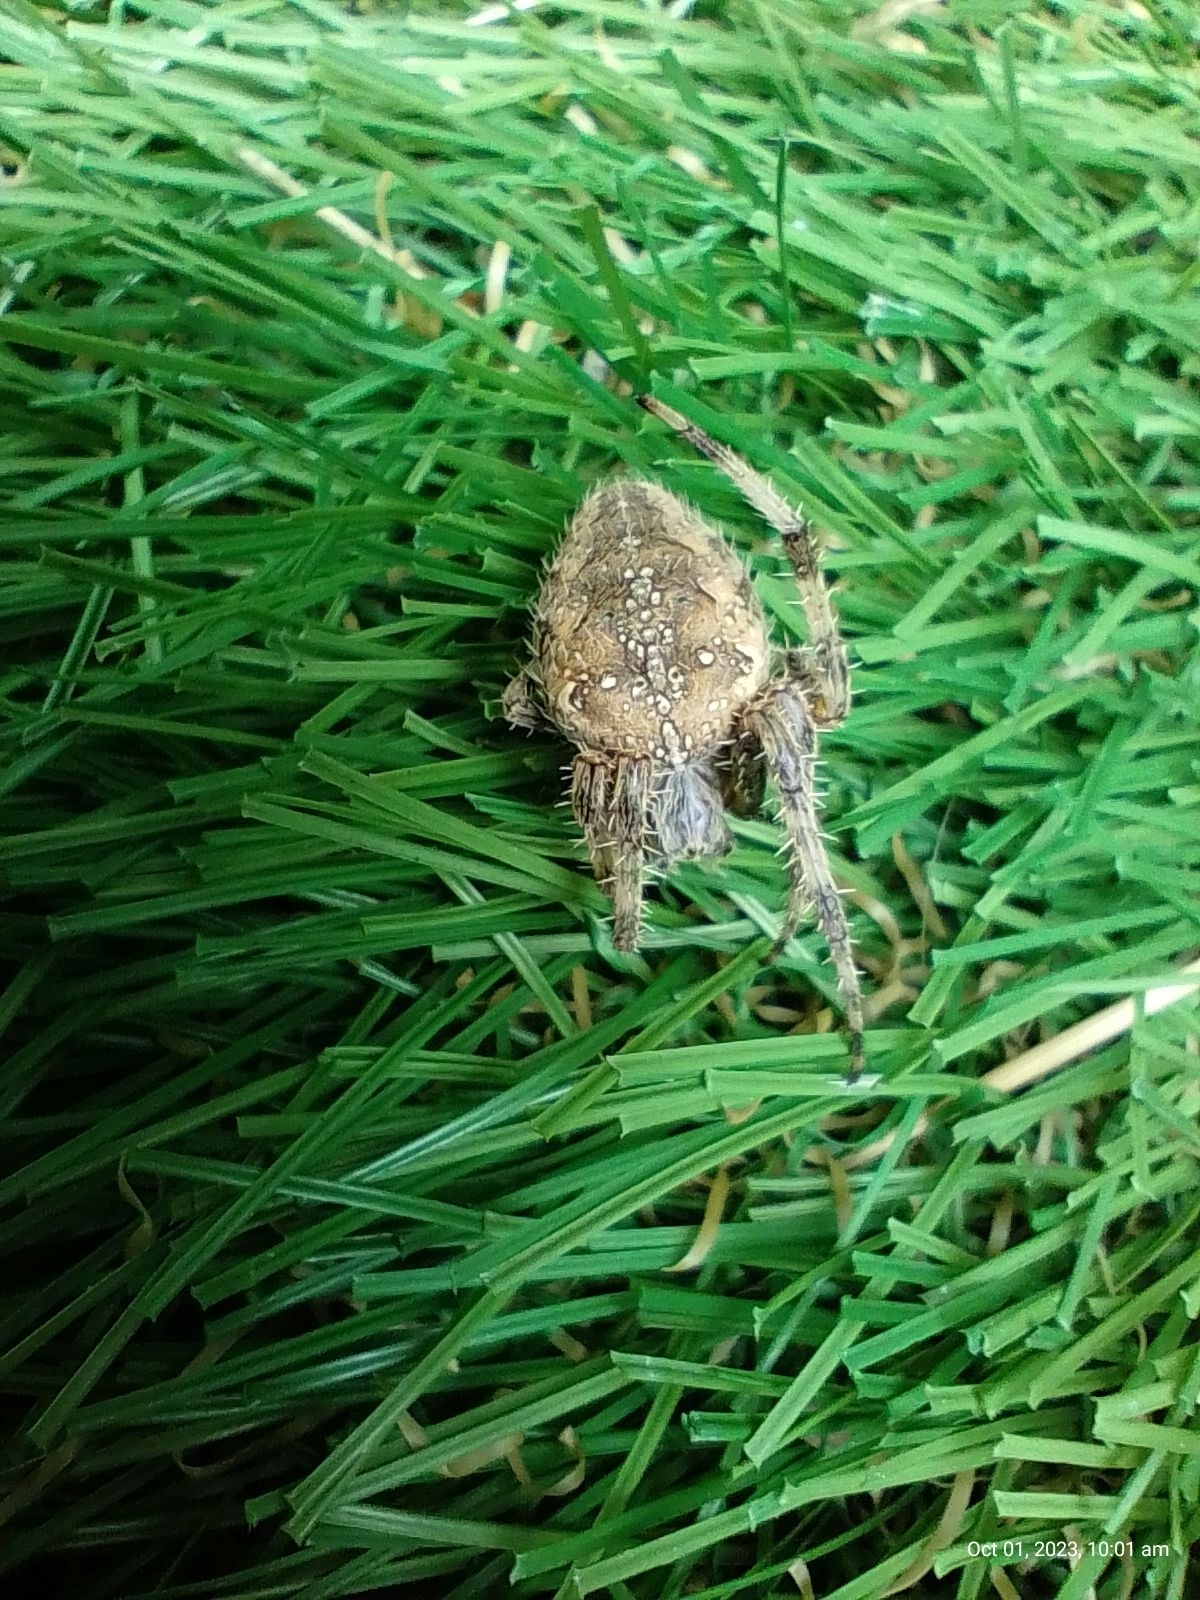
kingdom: Animalia
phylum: Arthropoda
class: Arachnida
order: Araneae
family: Araneidae
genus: Araneus
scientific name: Araneus diadematus
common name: Cross orbweaver
